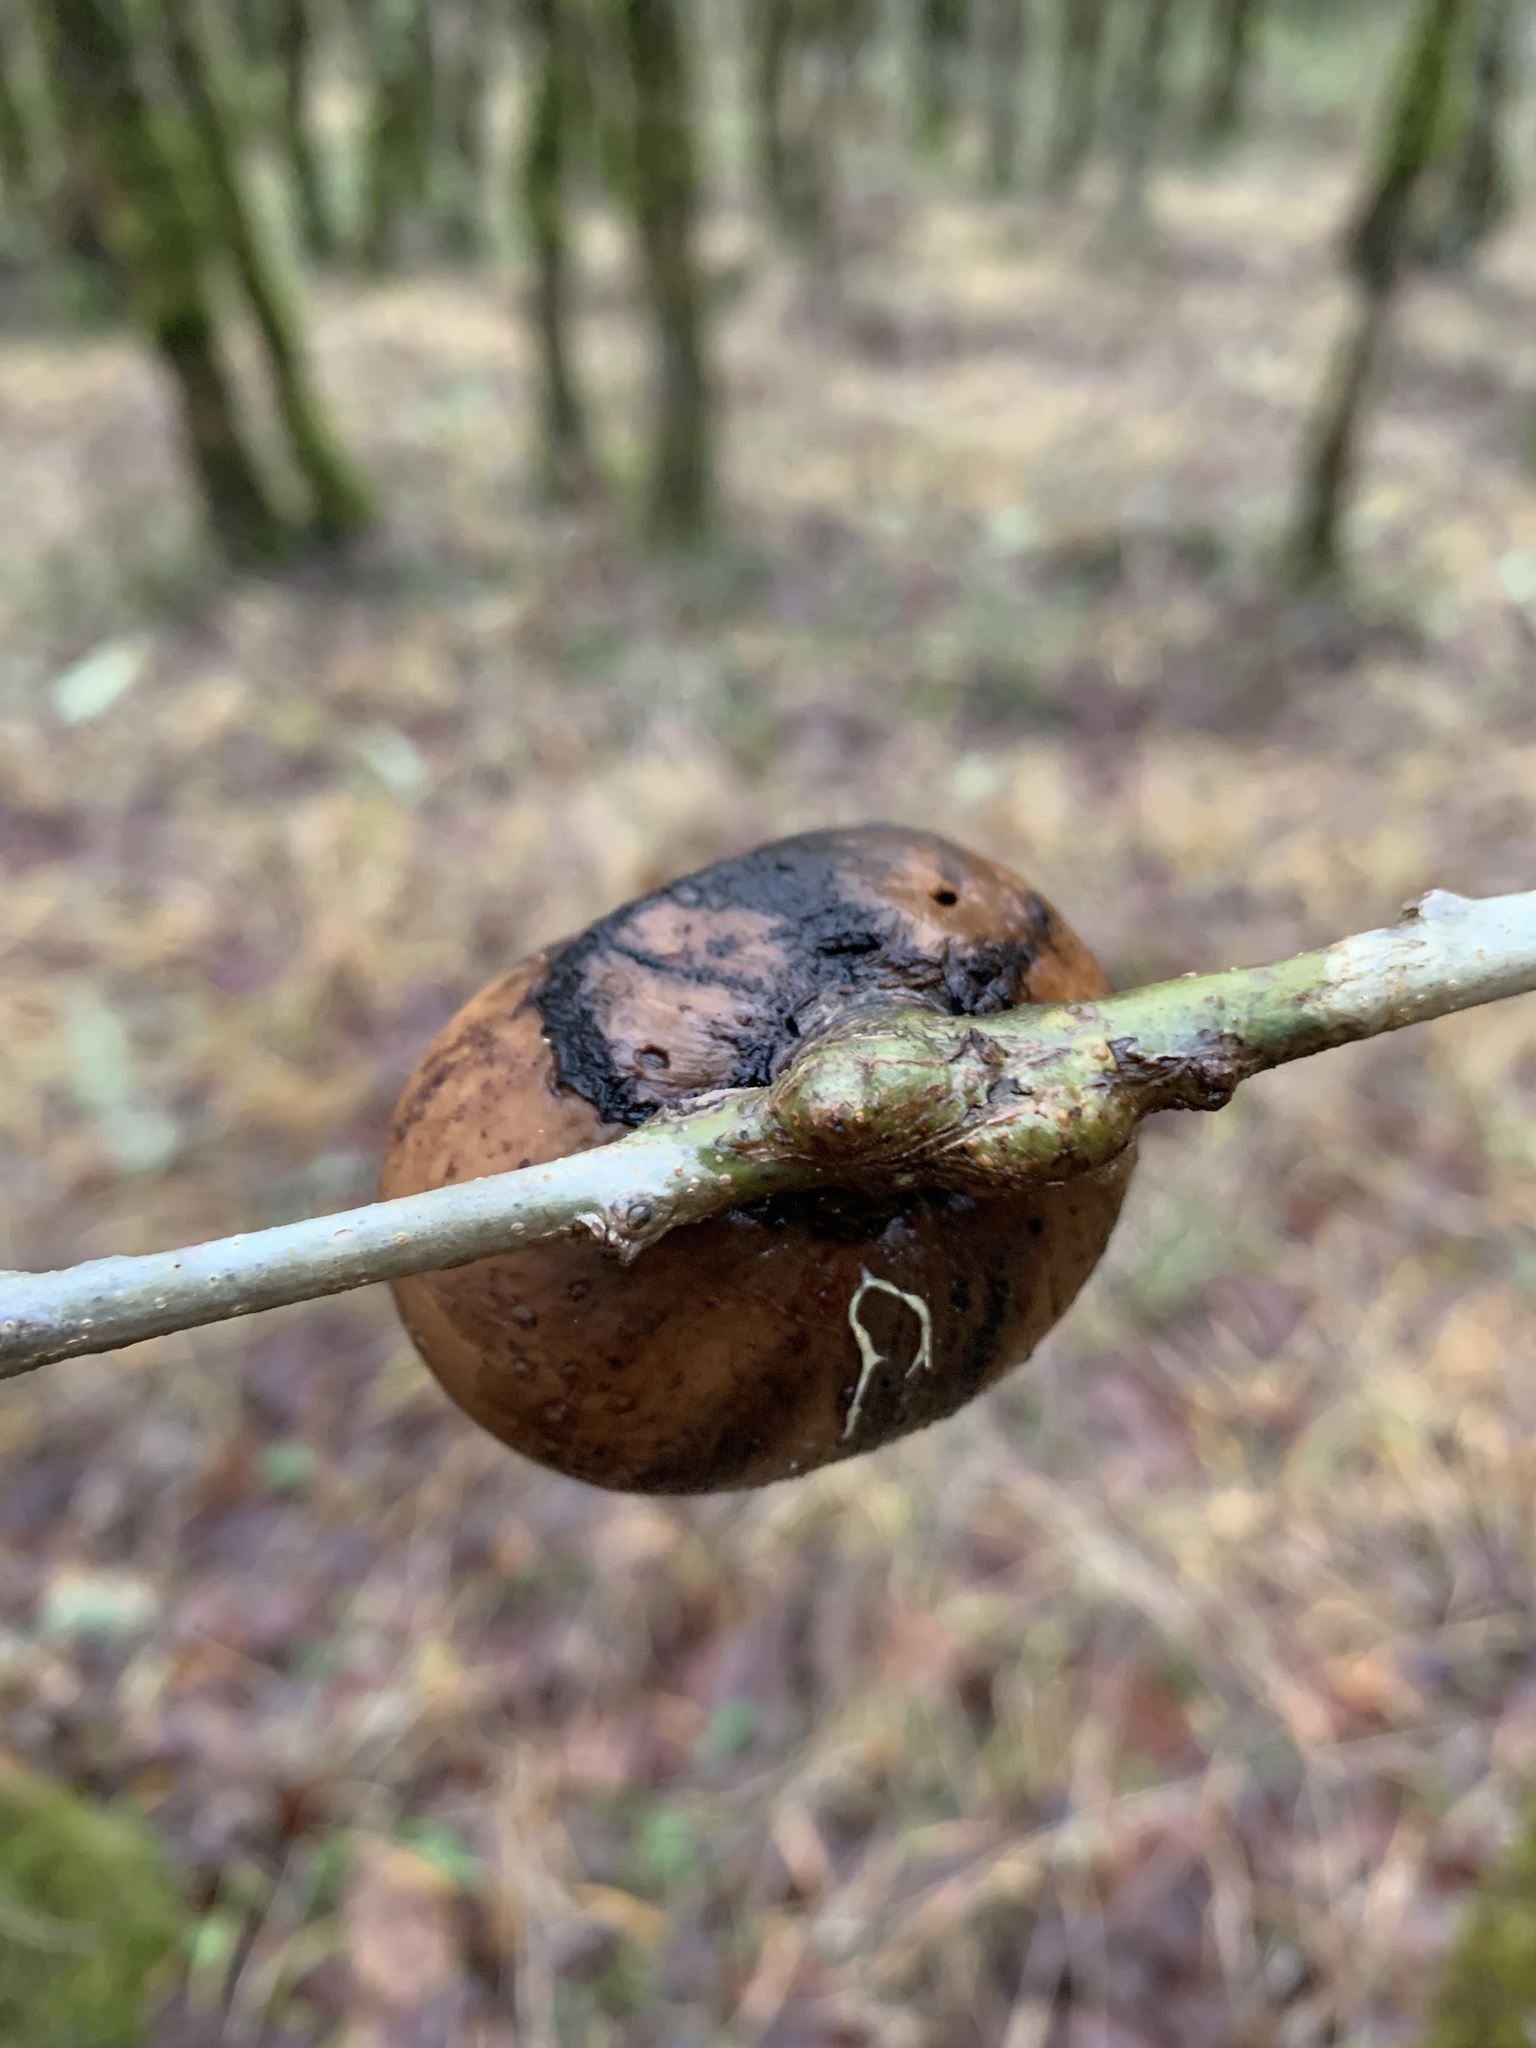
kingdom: Animalia
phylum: Arthropoda
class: Insecta
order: Hymenoptera
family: Cynipidae
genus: Andricus
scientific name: Andricus quercuscalifornicus
